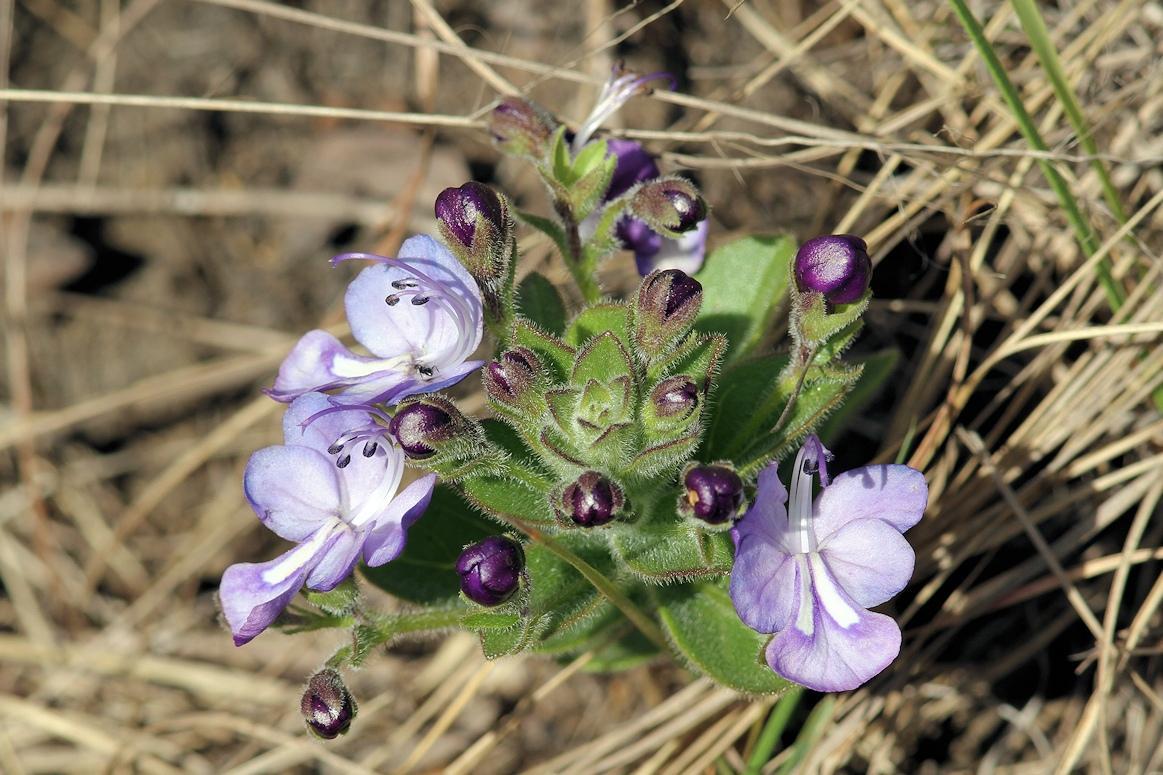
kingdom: Plantae
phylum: Tracheophyta
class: Magnoliopsida
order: Lamiales
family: Lamiaceae
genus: Rotheca
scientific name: Rotheca hirsuta
